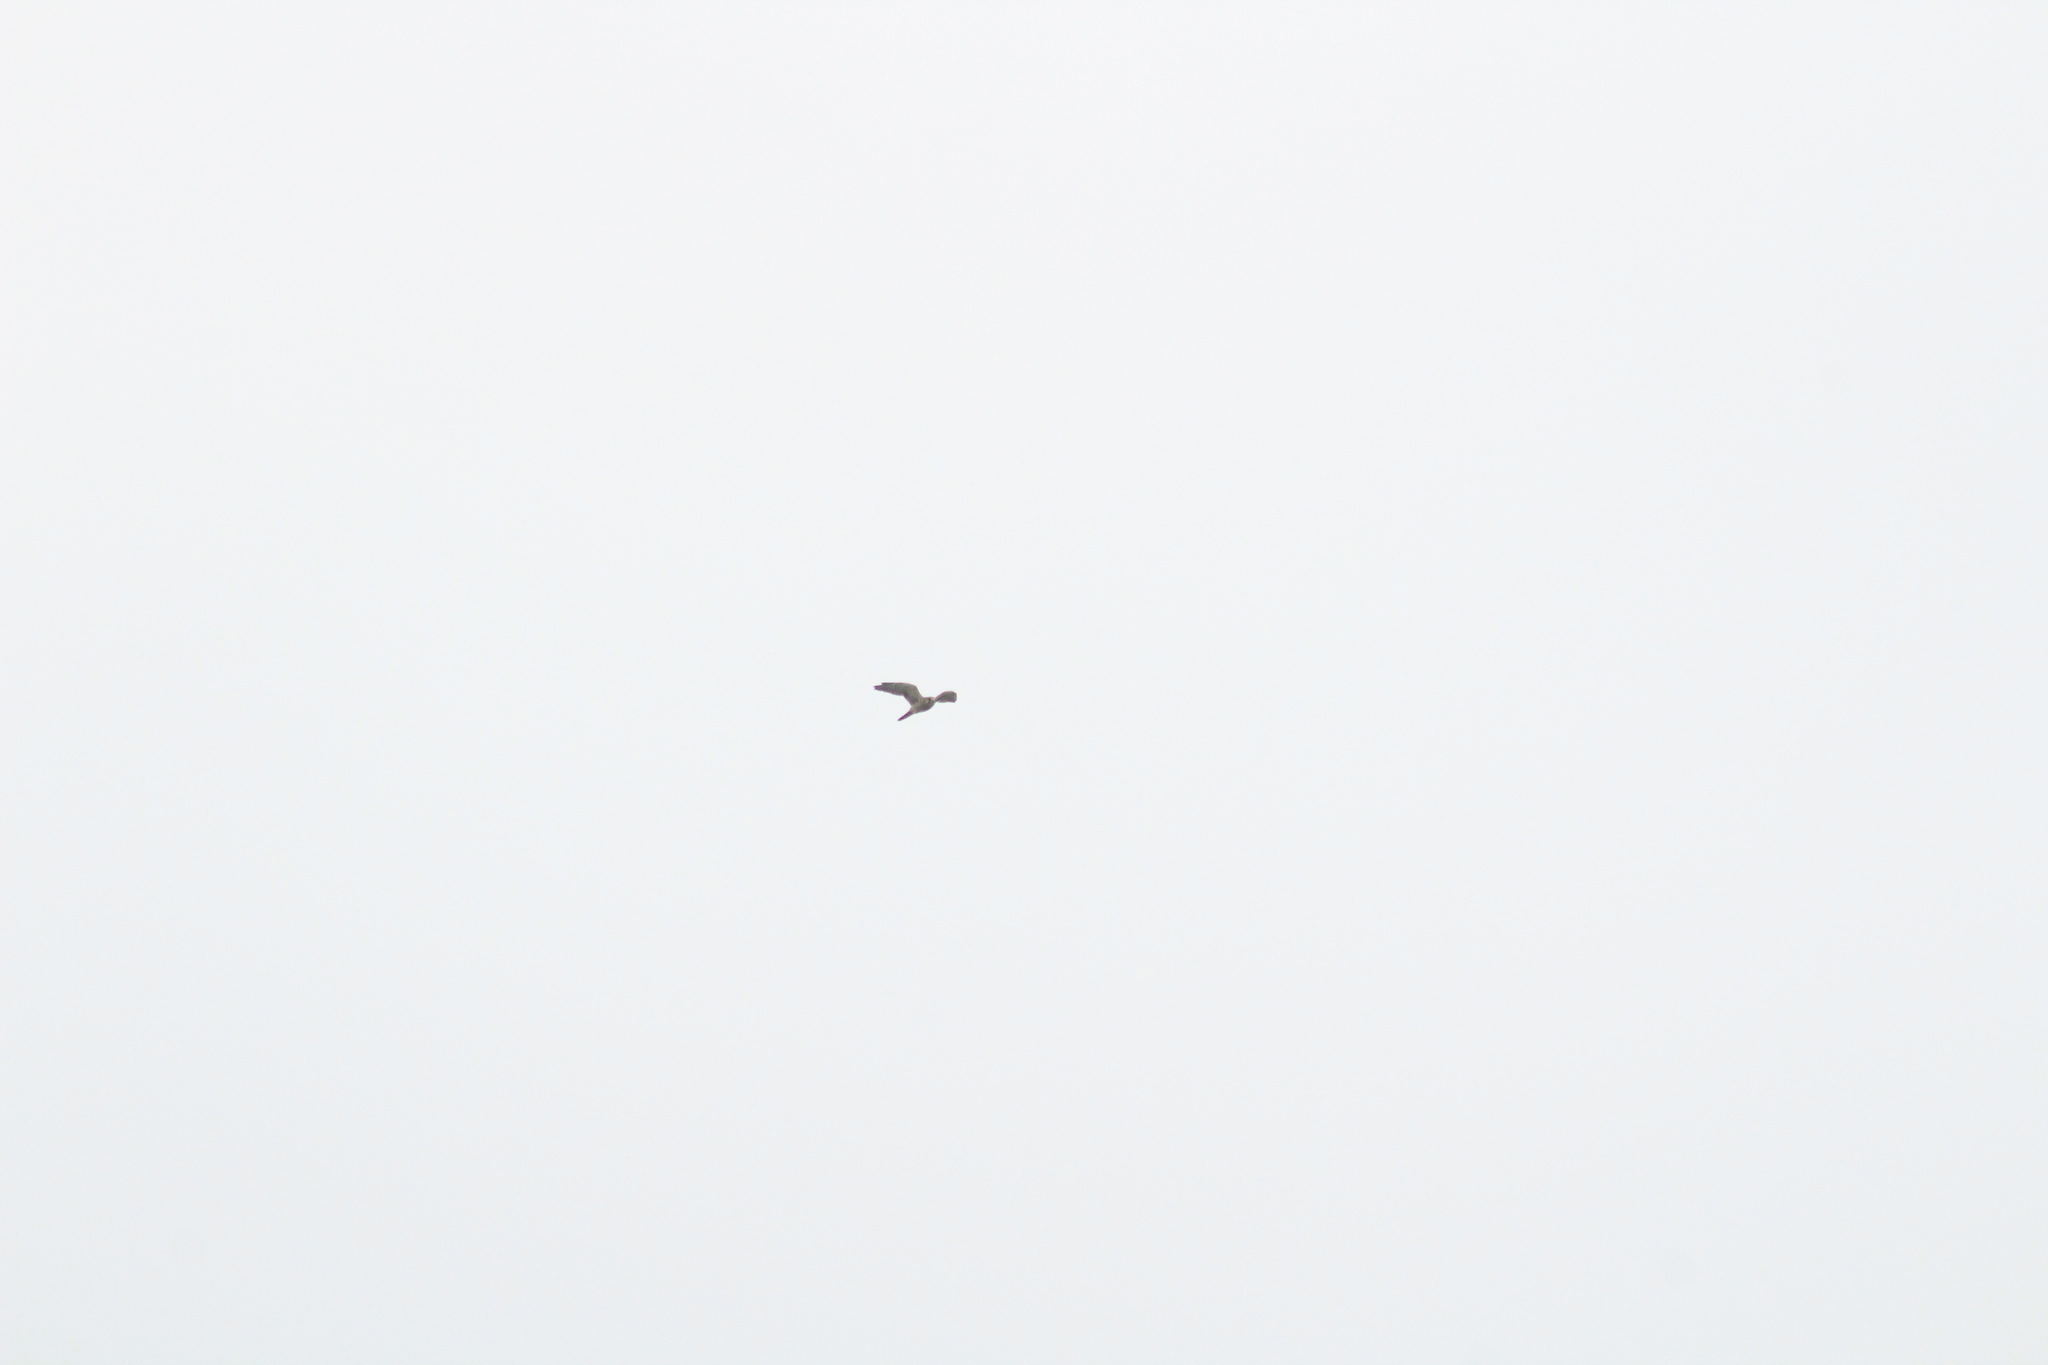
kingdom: Animalia
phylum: Chordata
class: Aves
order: Falconiformes
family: Falconidae
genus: Falco
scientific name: Falco tinnunculus
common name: Common kestrel
